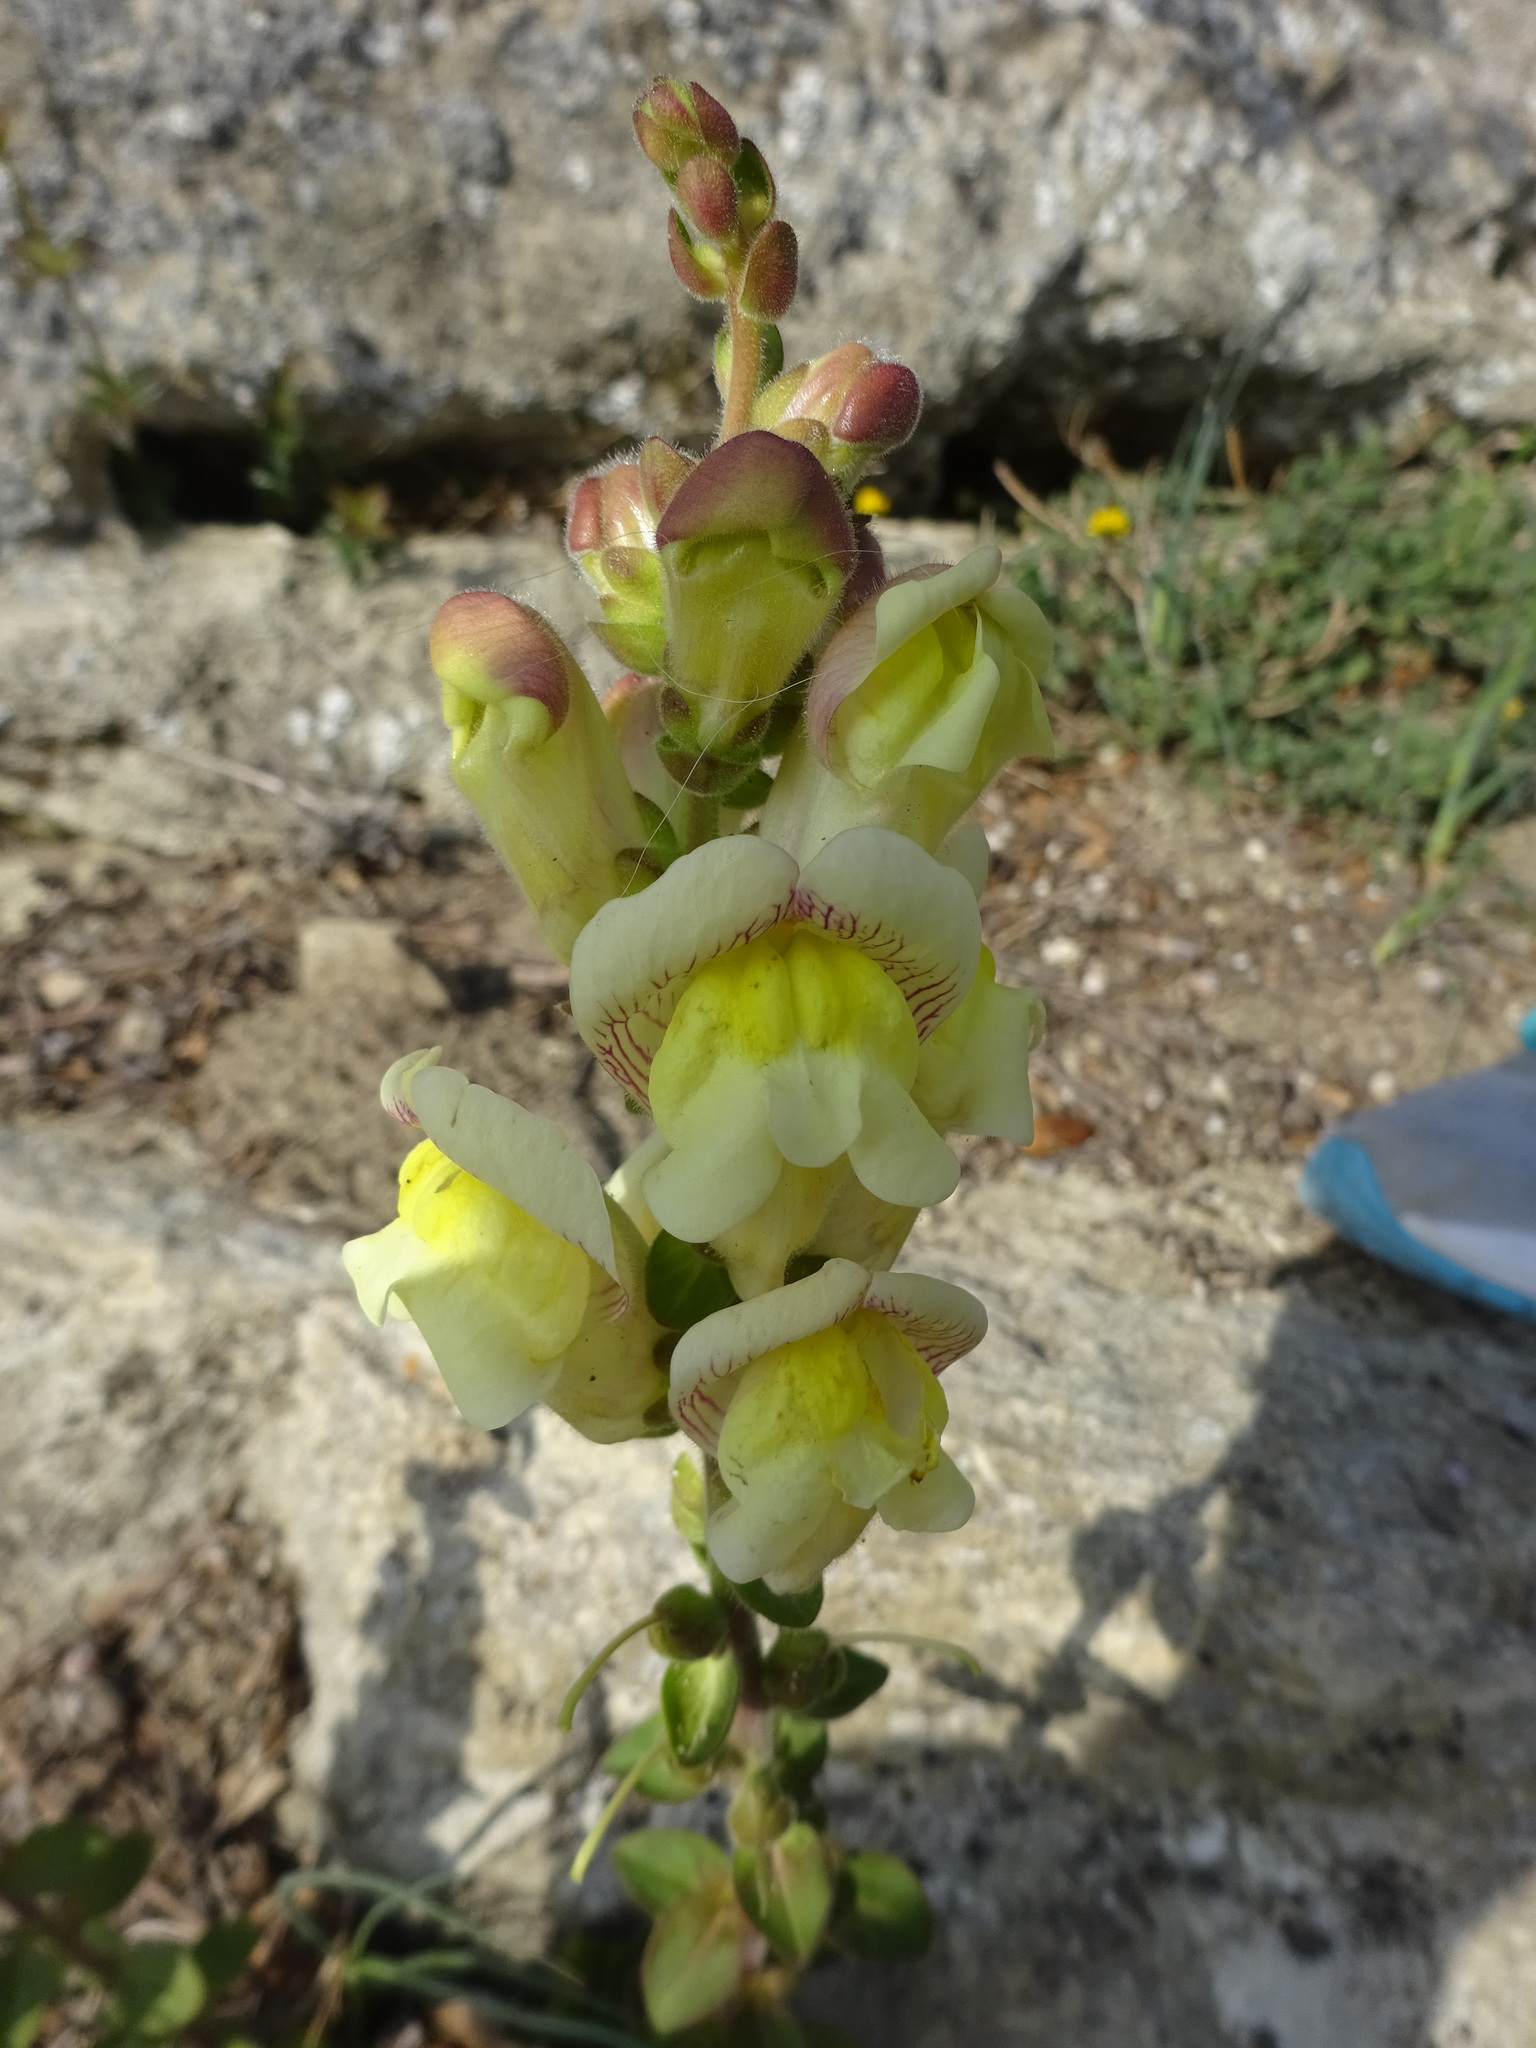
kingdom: Plantae
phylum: Tracheophyta
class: Magnoliopsida
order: Lamiales
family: Plantaginaceae
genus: Antirrhinum
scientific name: Antirrhinum latifolium
